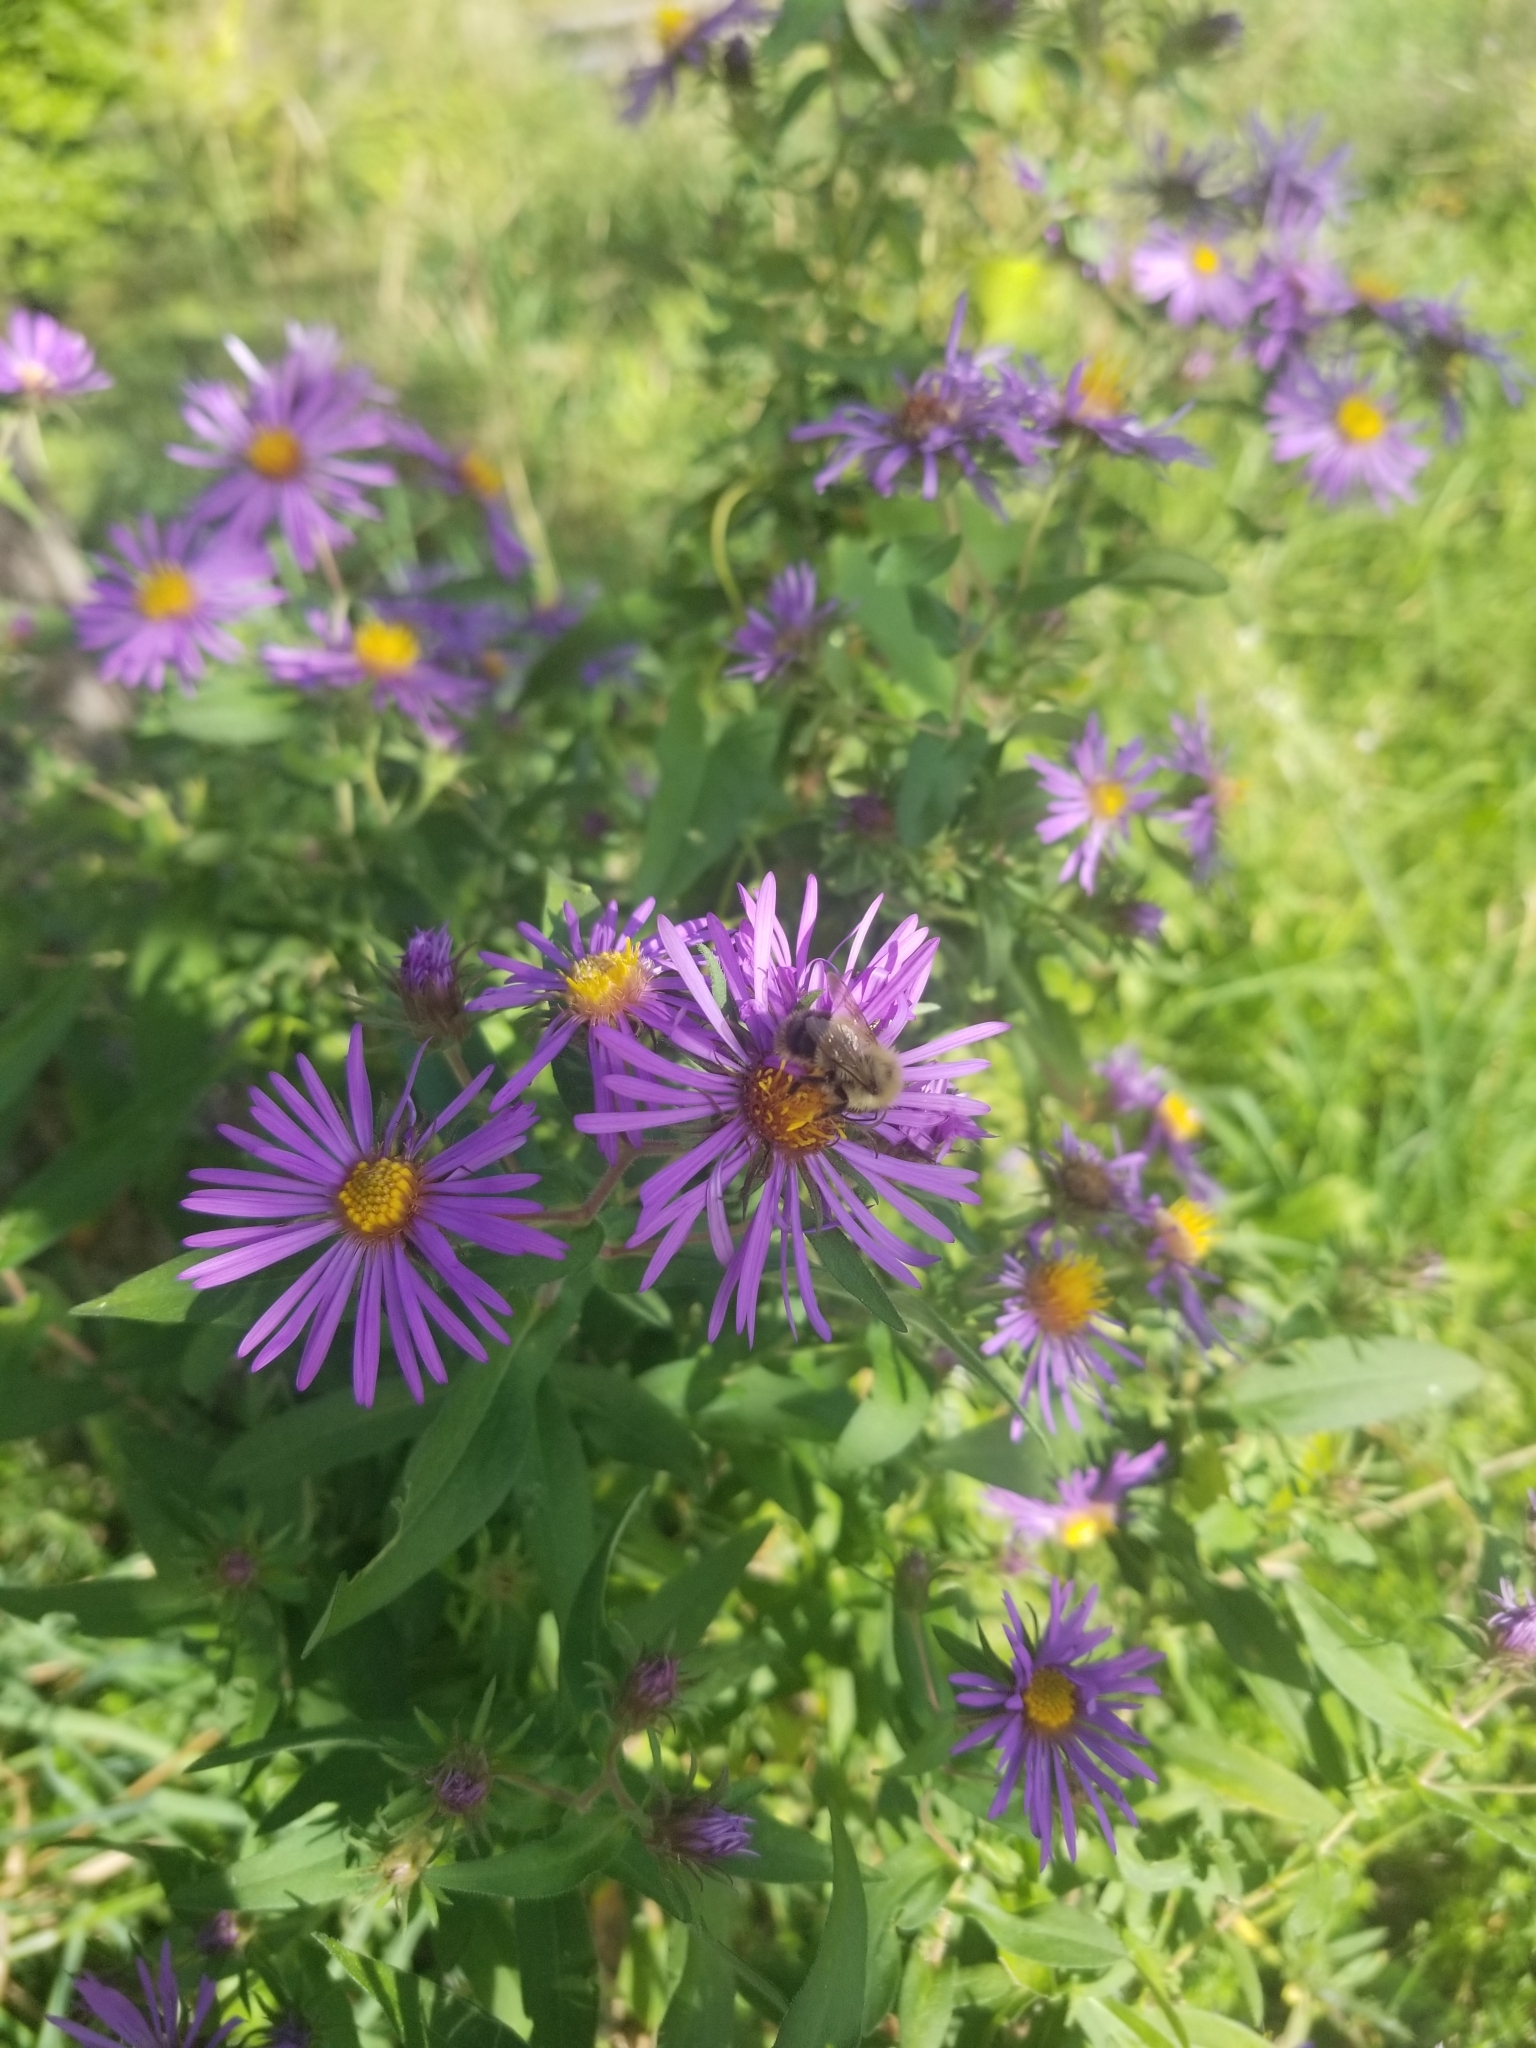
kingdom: Animalia
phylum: Arthropoda
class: Insecta
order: Hymenoptera
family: Apidae
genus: Pyrobombus
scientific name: Pyrobombus
